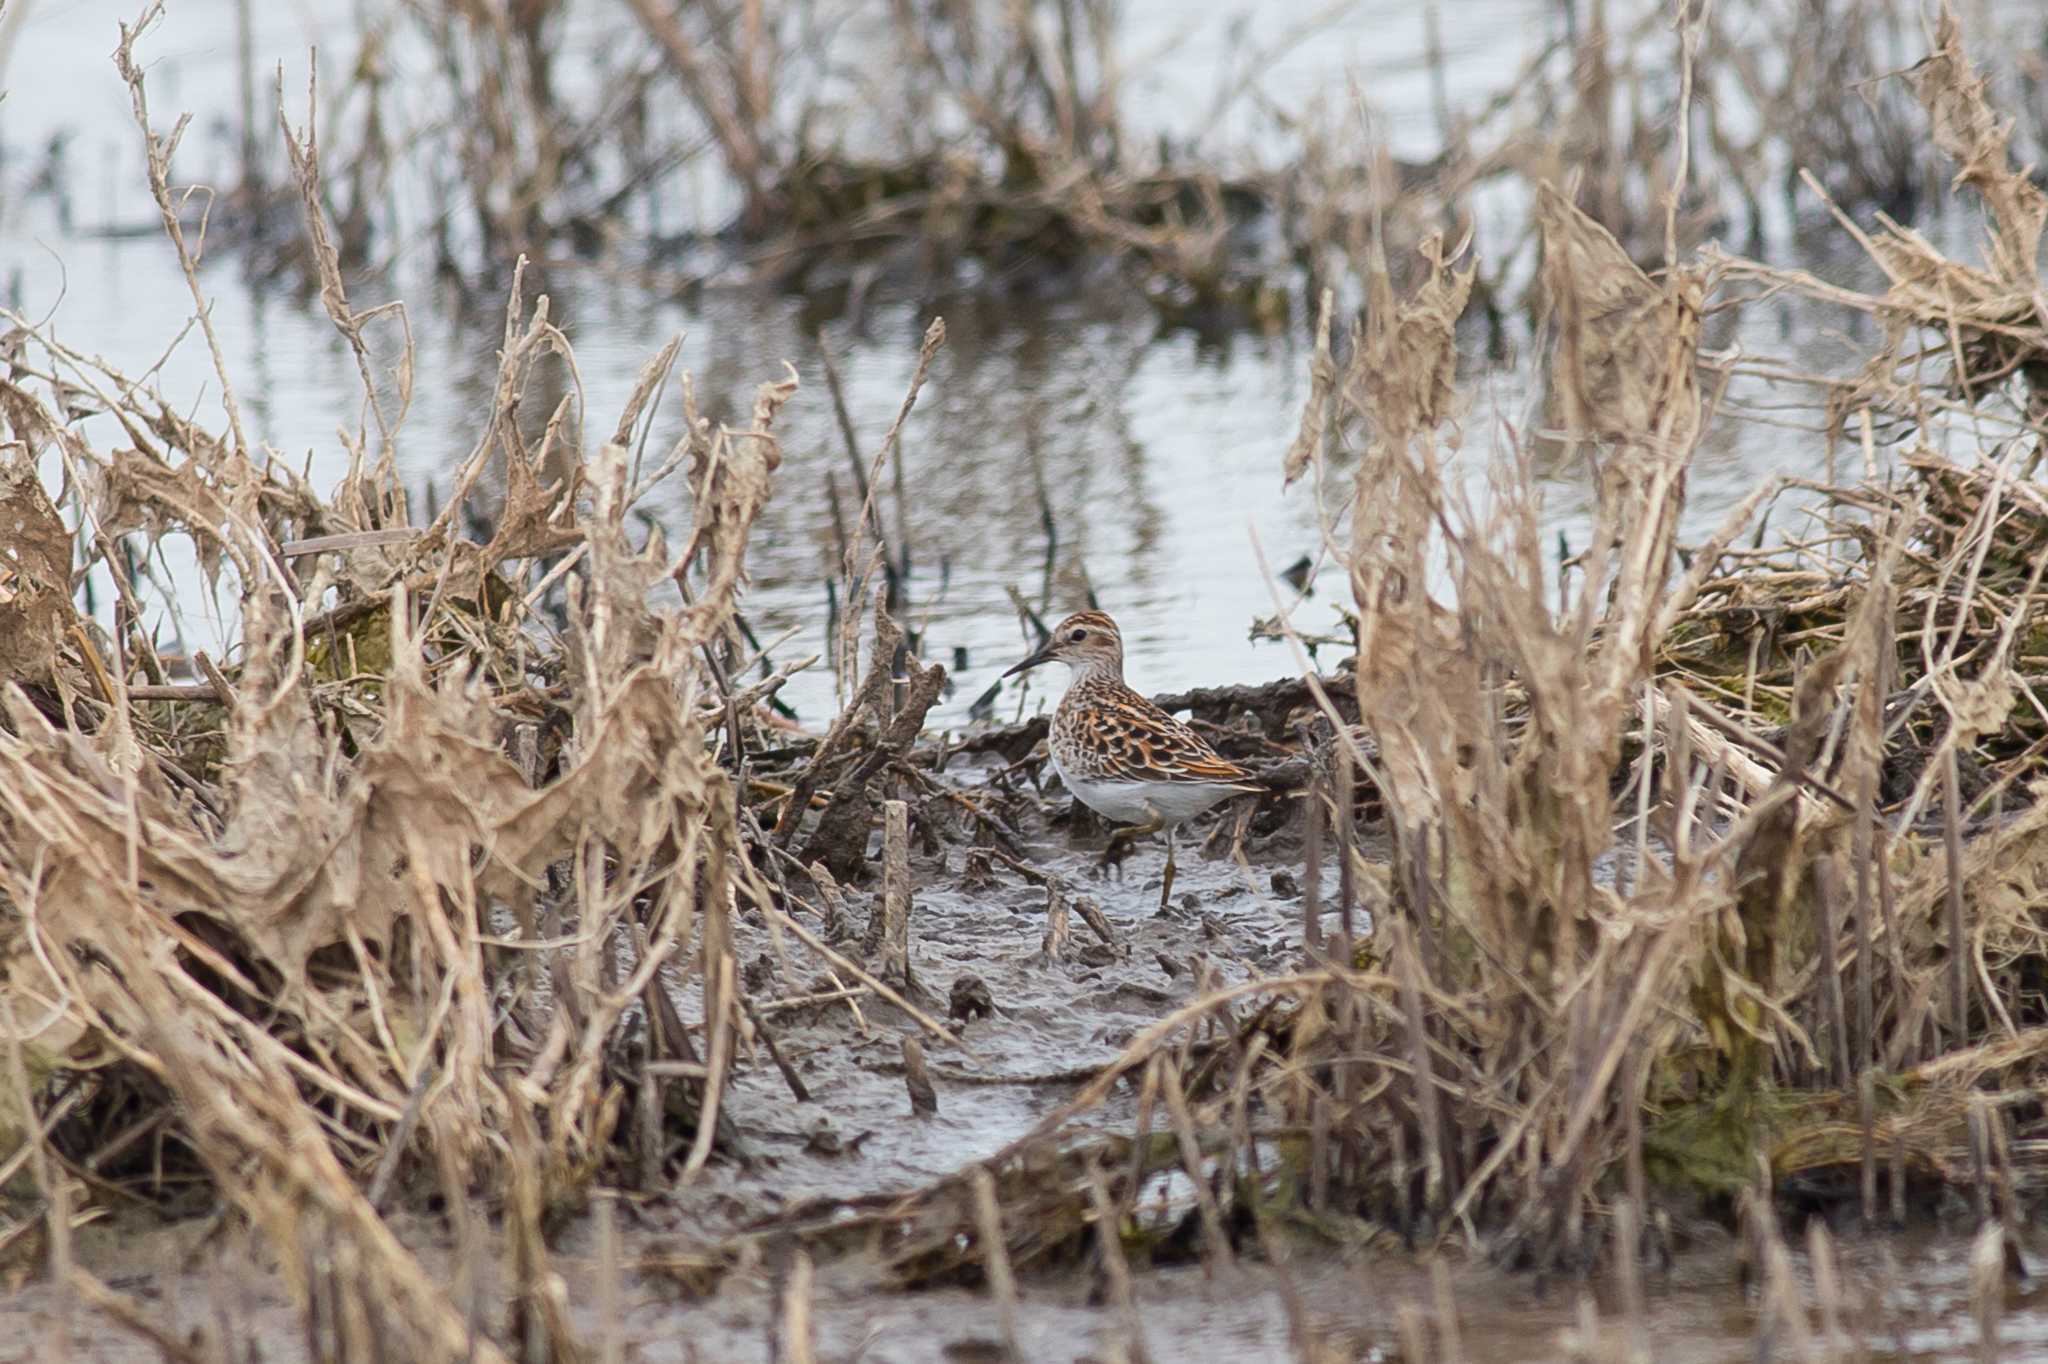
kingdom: Animalia
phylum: Chordata
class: Aves
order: Charadriiformes
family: Scolopacidae
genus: Calidris
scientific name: Calidris subminuta
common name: Long-toed stint
